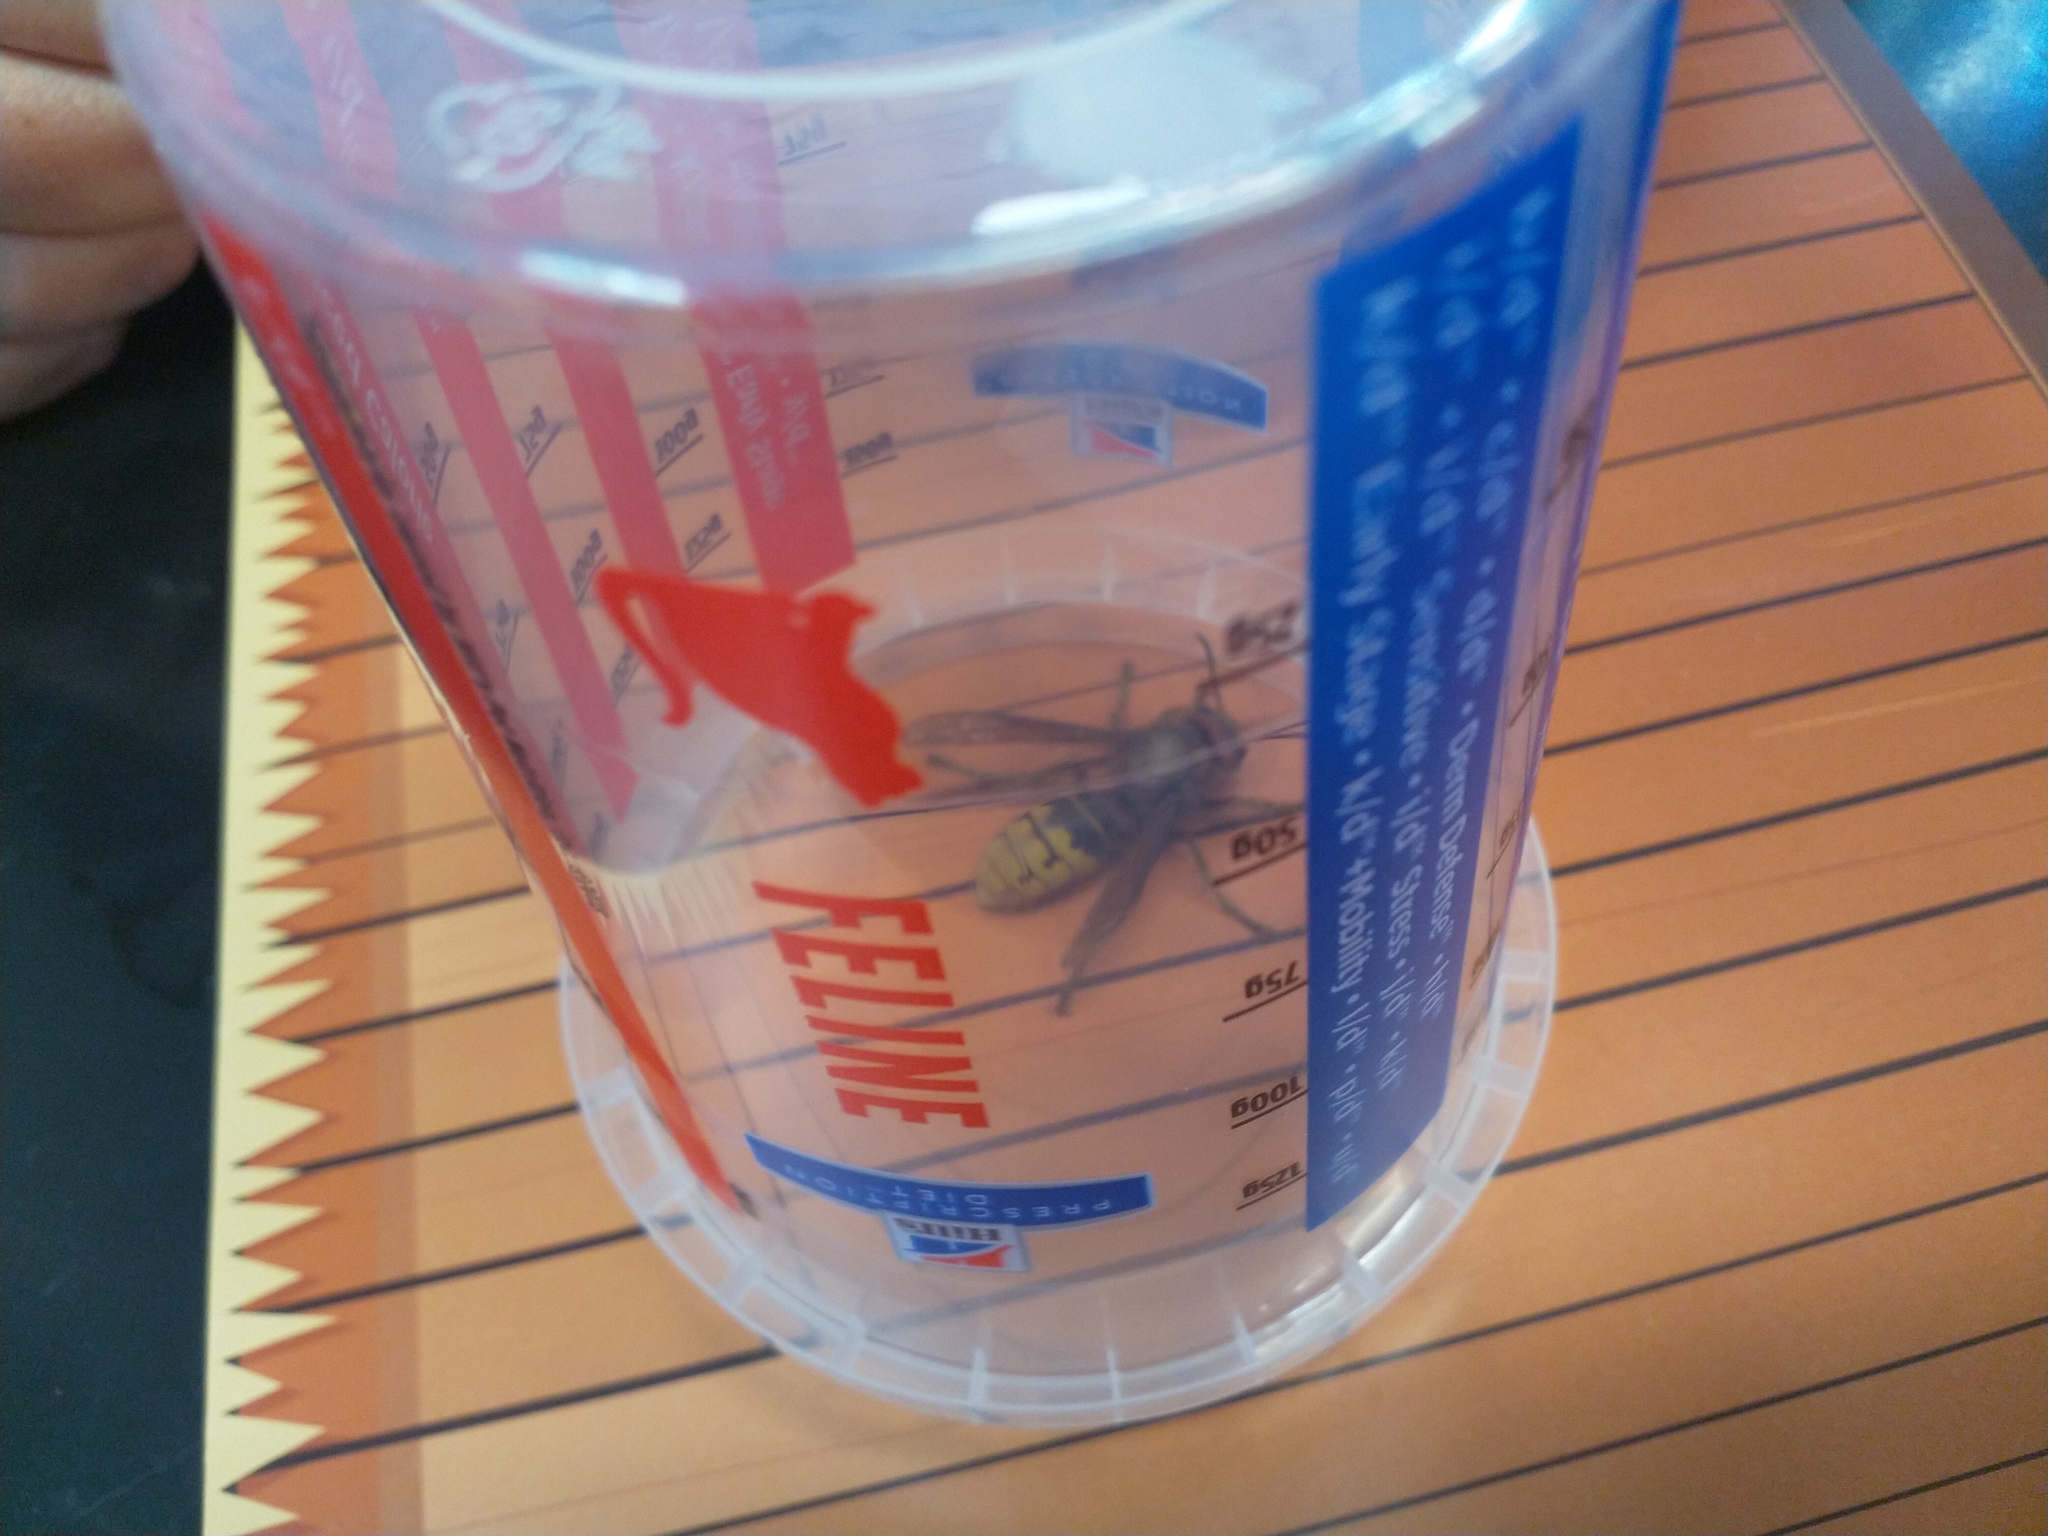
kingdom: Animalia
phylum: Arthropoda
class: Insecta
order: Hymenoptera
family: Vespidae
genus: Vespa
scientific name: Vespa crabro
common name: Hornet
